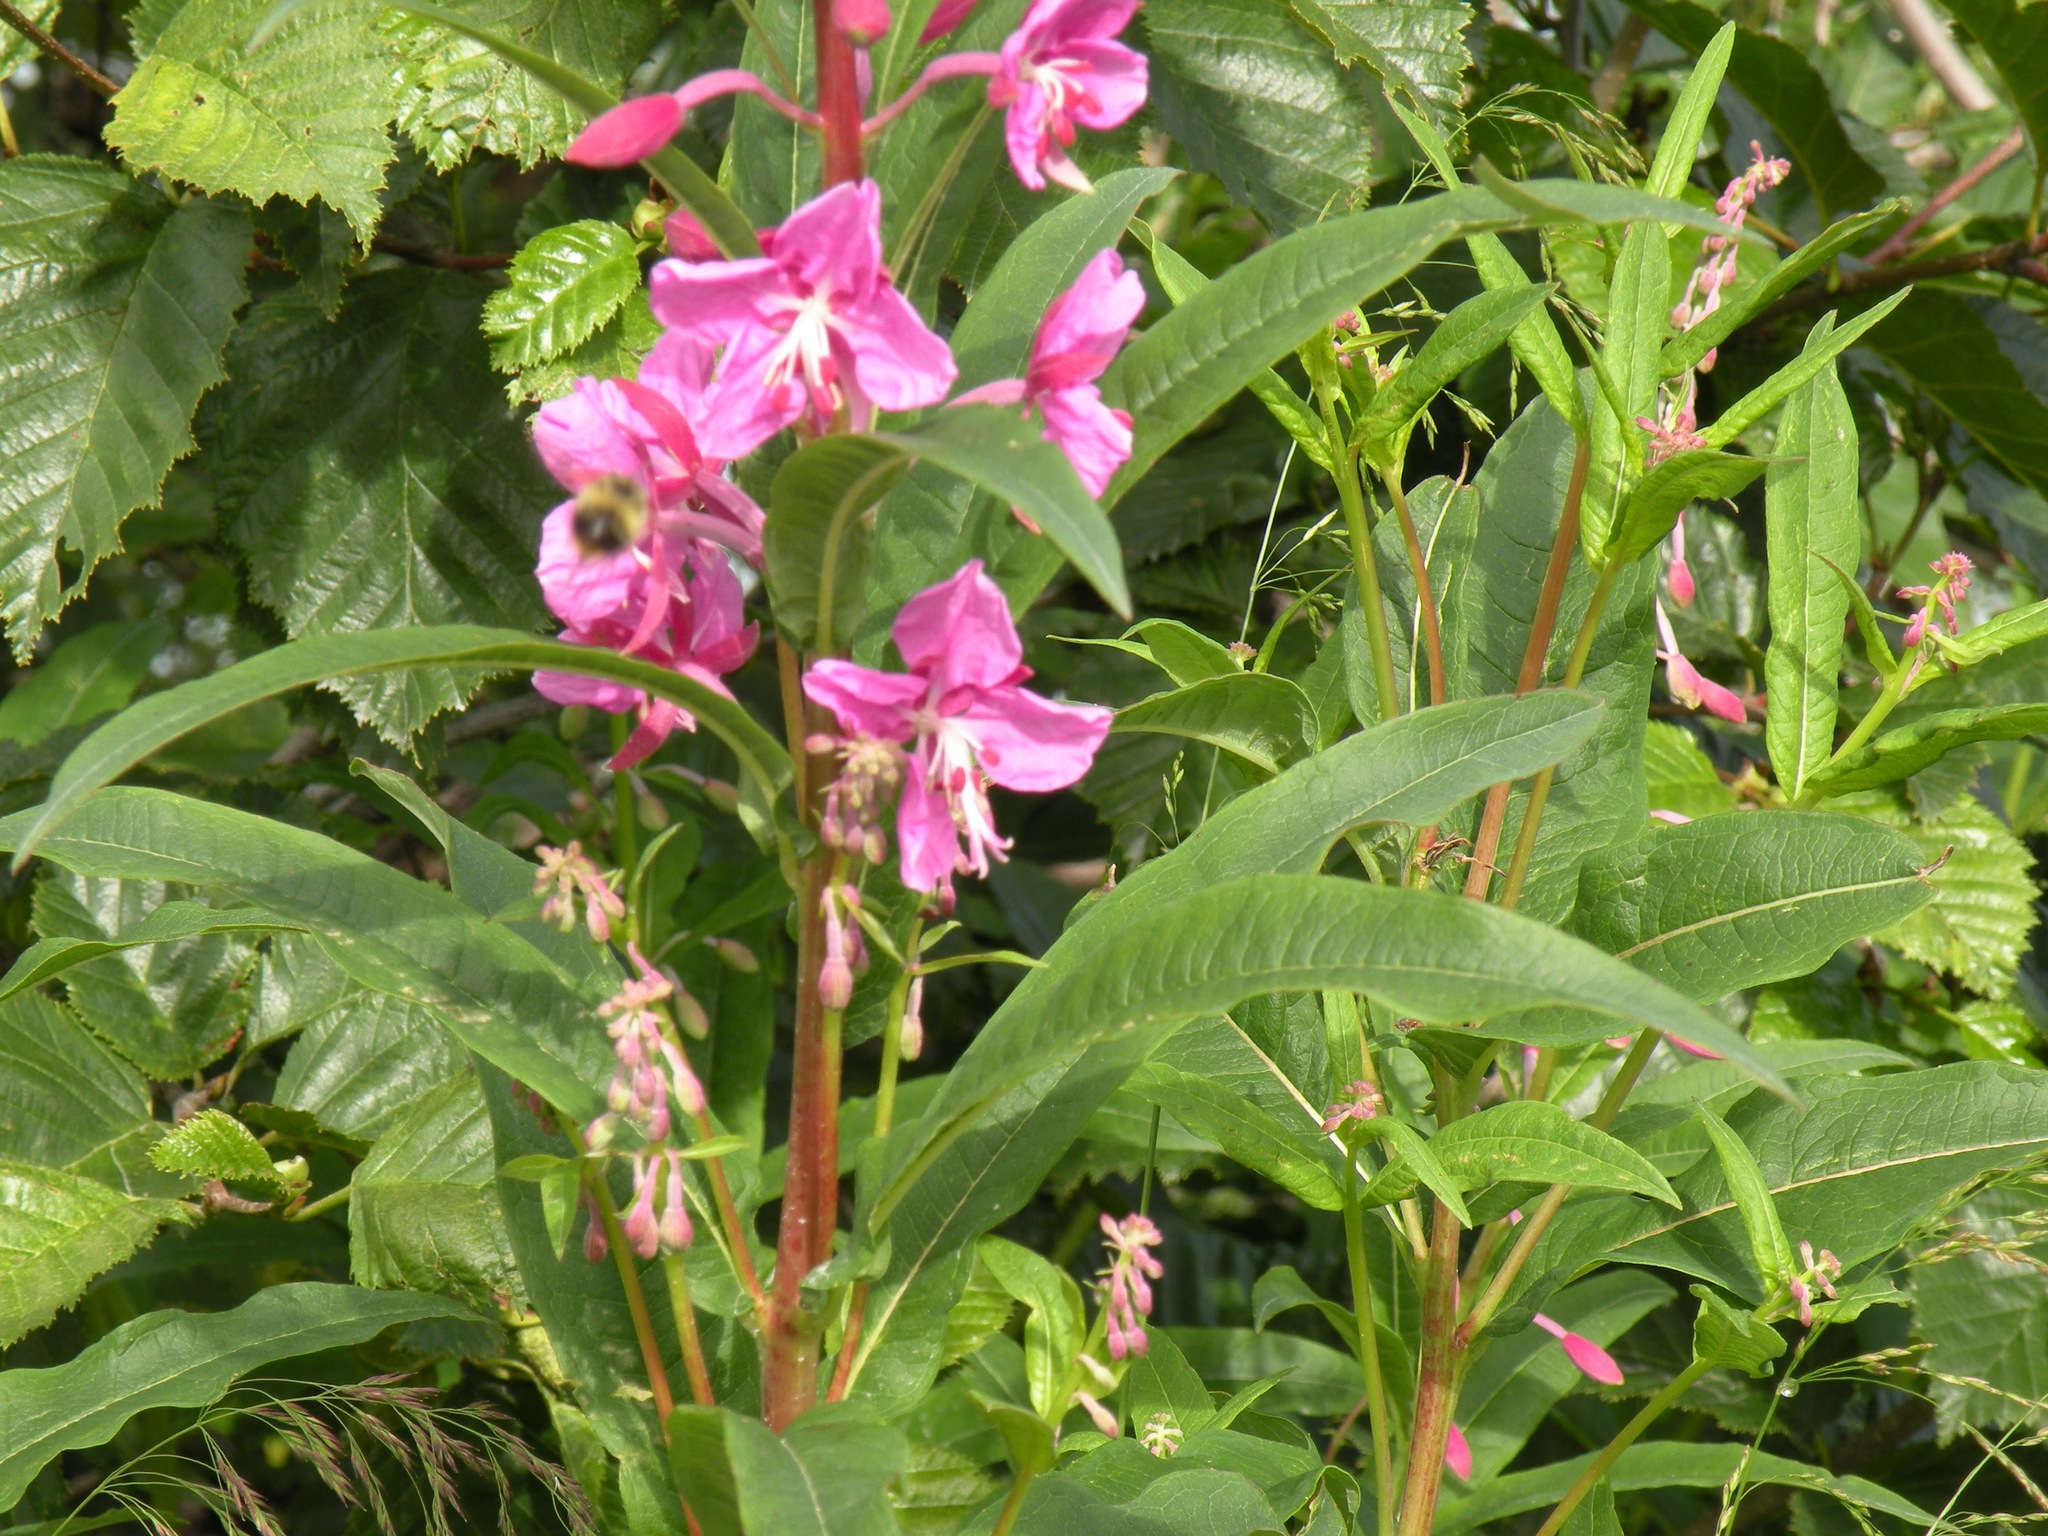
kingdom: Plantae
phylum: Tracheophyta
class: Magnoliopsida
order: Myrtales
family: Onagraceae
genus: Chamaenerion
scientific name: Chamaenerion angustifolium
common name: Fireweed
